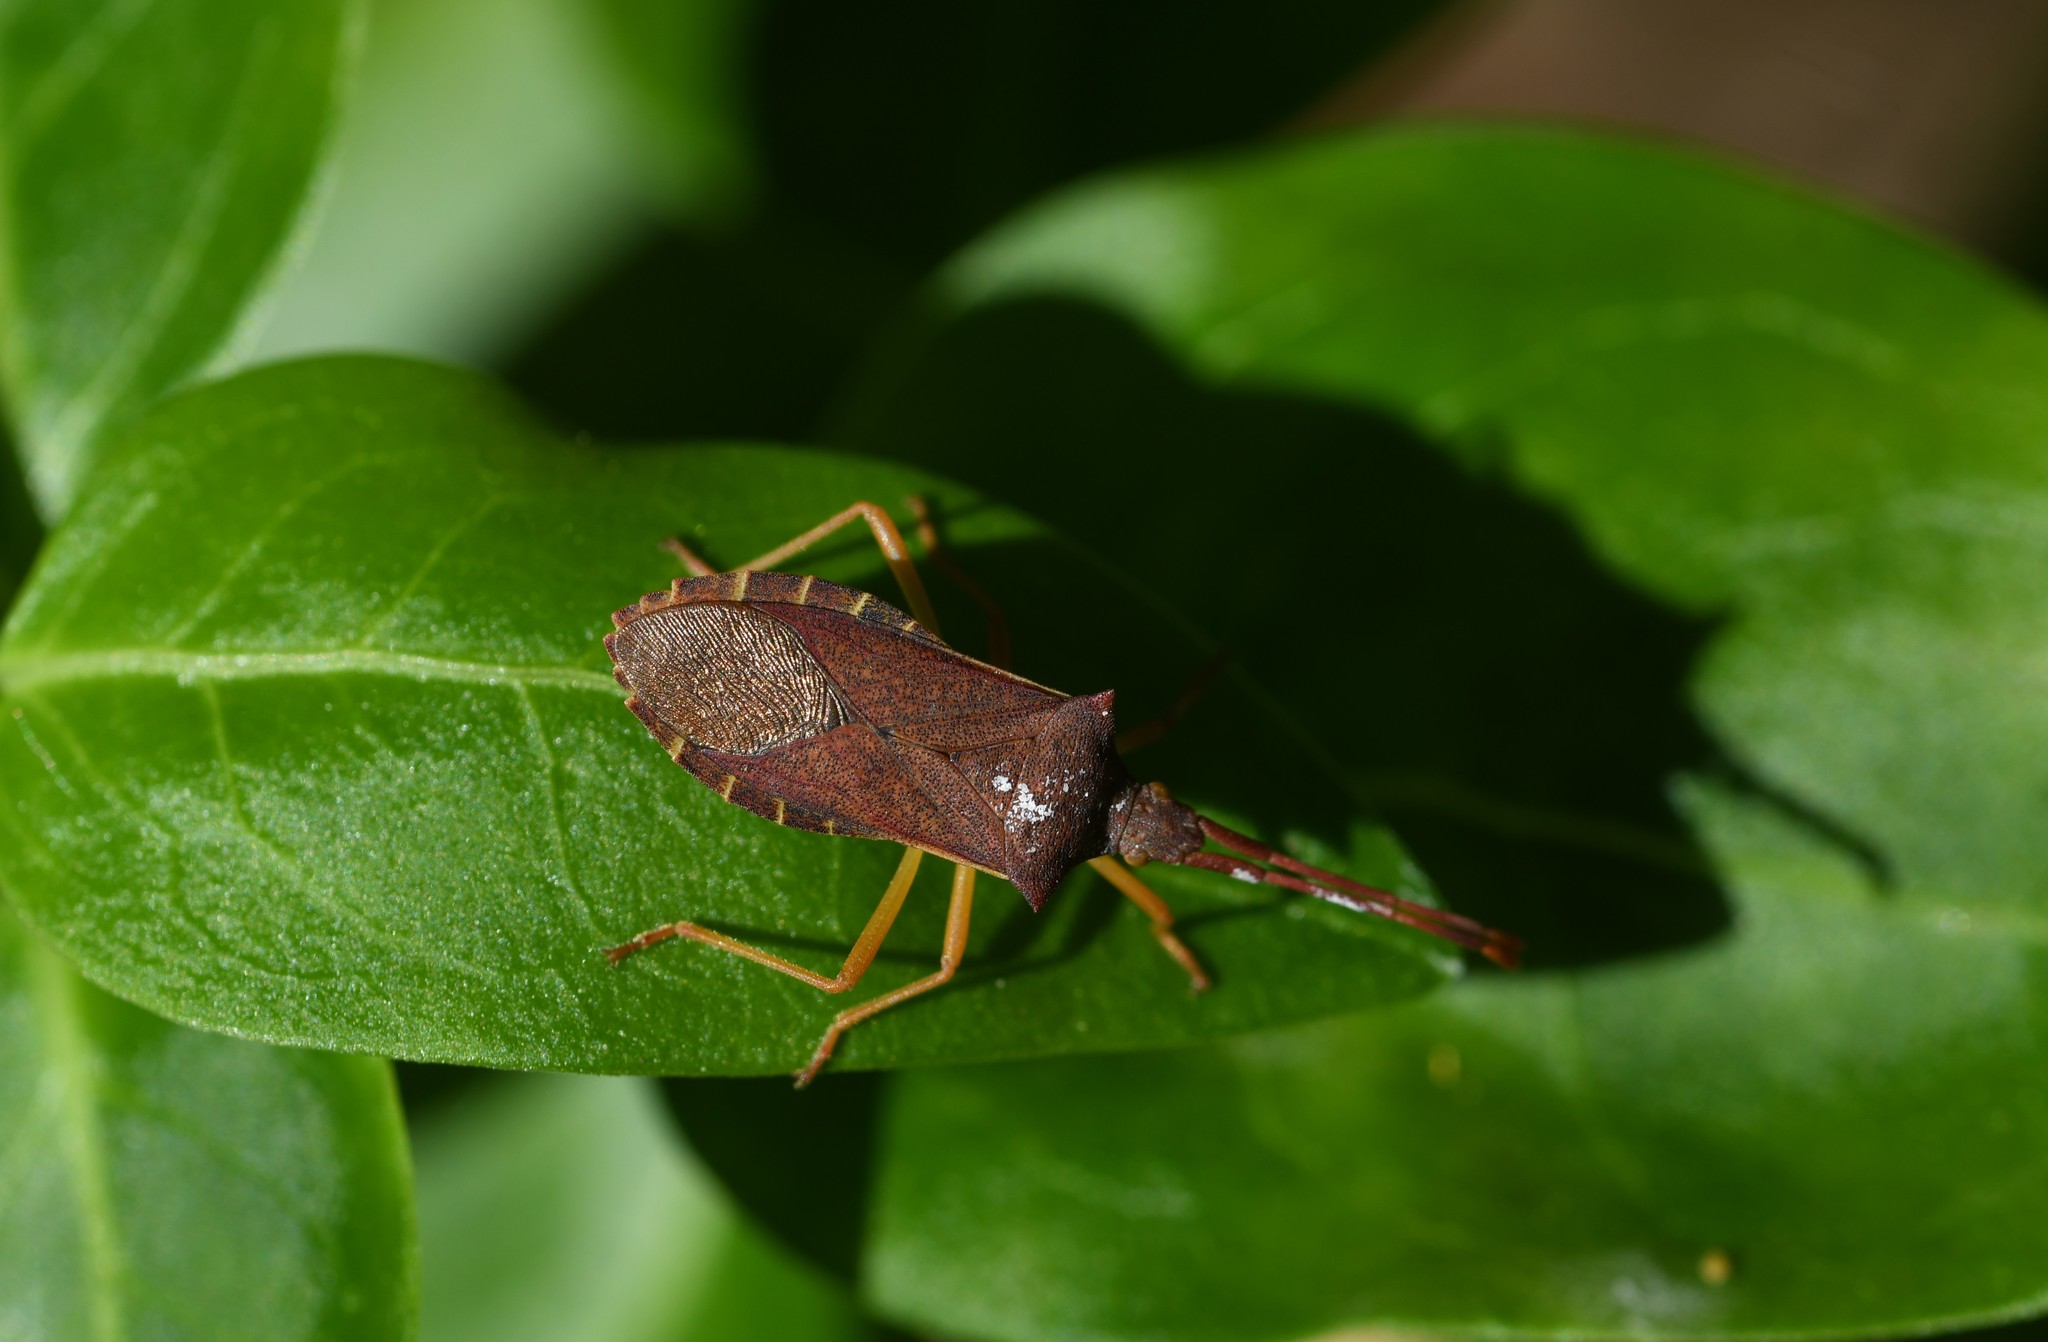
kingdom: Animalia
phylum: Arthropoda
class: Insecta
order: Hemiptera
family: Coreidae
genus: Gonocerus
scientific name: Gonocerus acuteangulatus
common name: Box bug
